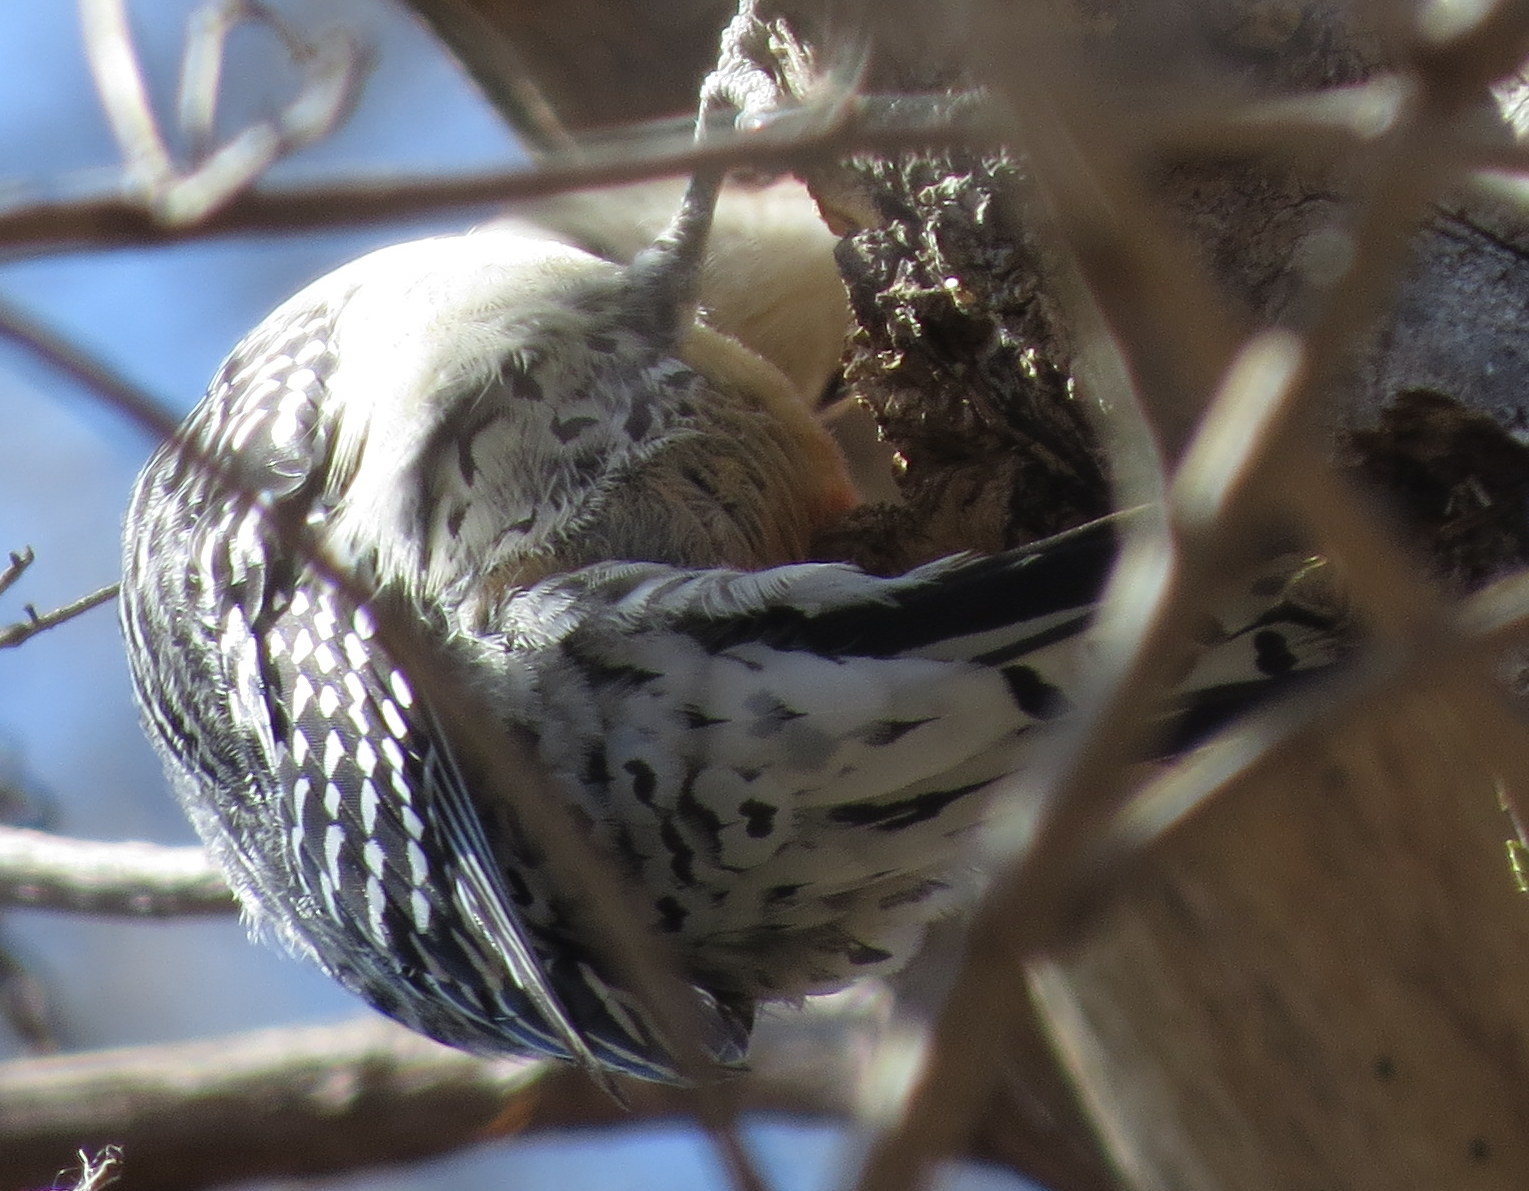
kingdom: Animalia
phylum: Chordata
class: Aves
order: Piciformes
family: Picidae
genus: Melanerpes
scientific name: Melanerpes carolinus
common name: Red-bellied woodpecker
